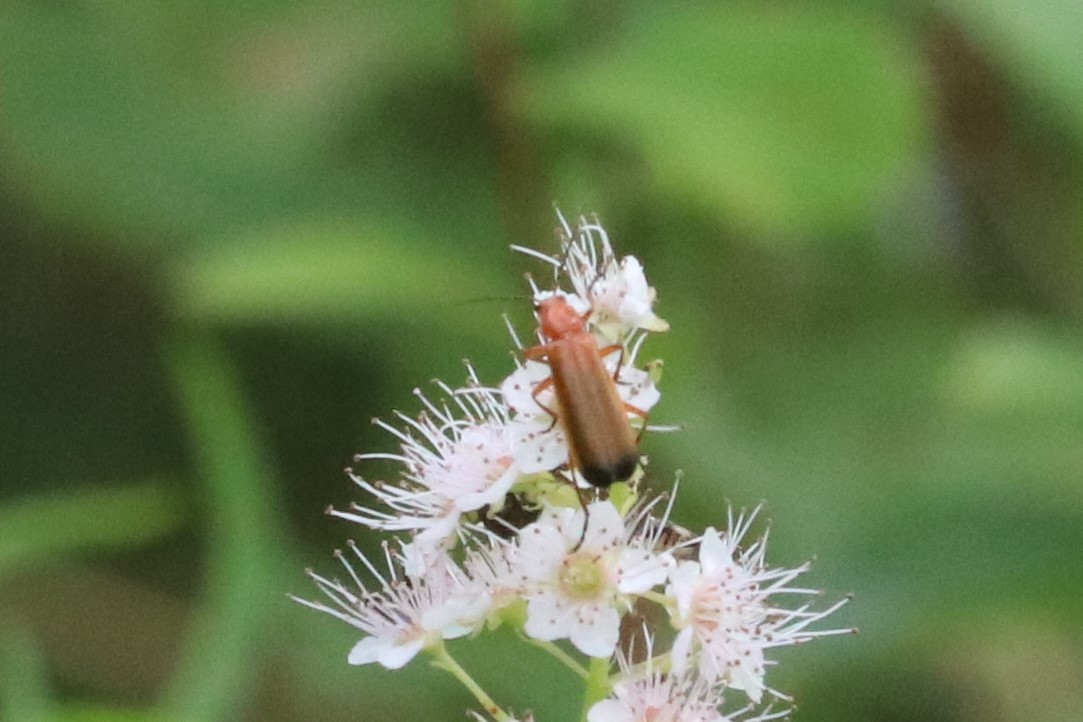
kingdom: Animalia
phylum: Arthropoda
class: Insecta
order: Coleoptera
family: Cantharidae
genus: Rhagonycha
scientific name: Rhagonycha fulva
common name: Common red soldier beetle
